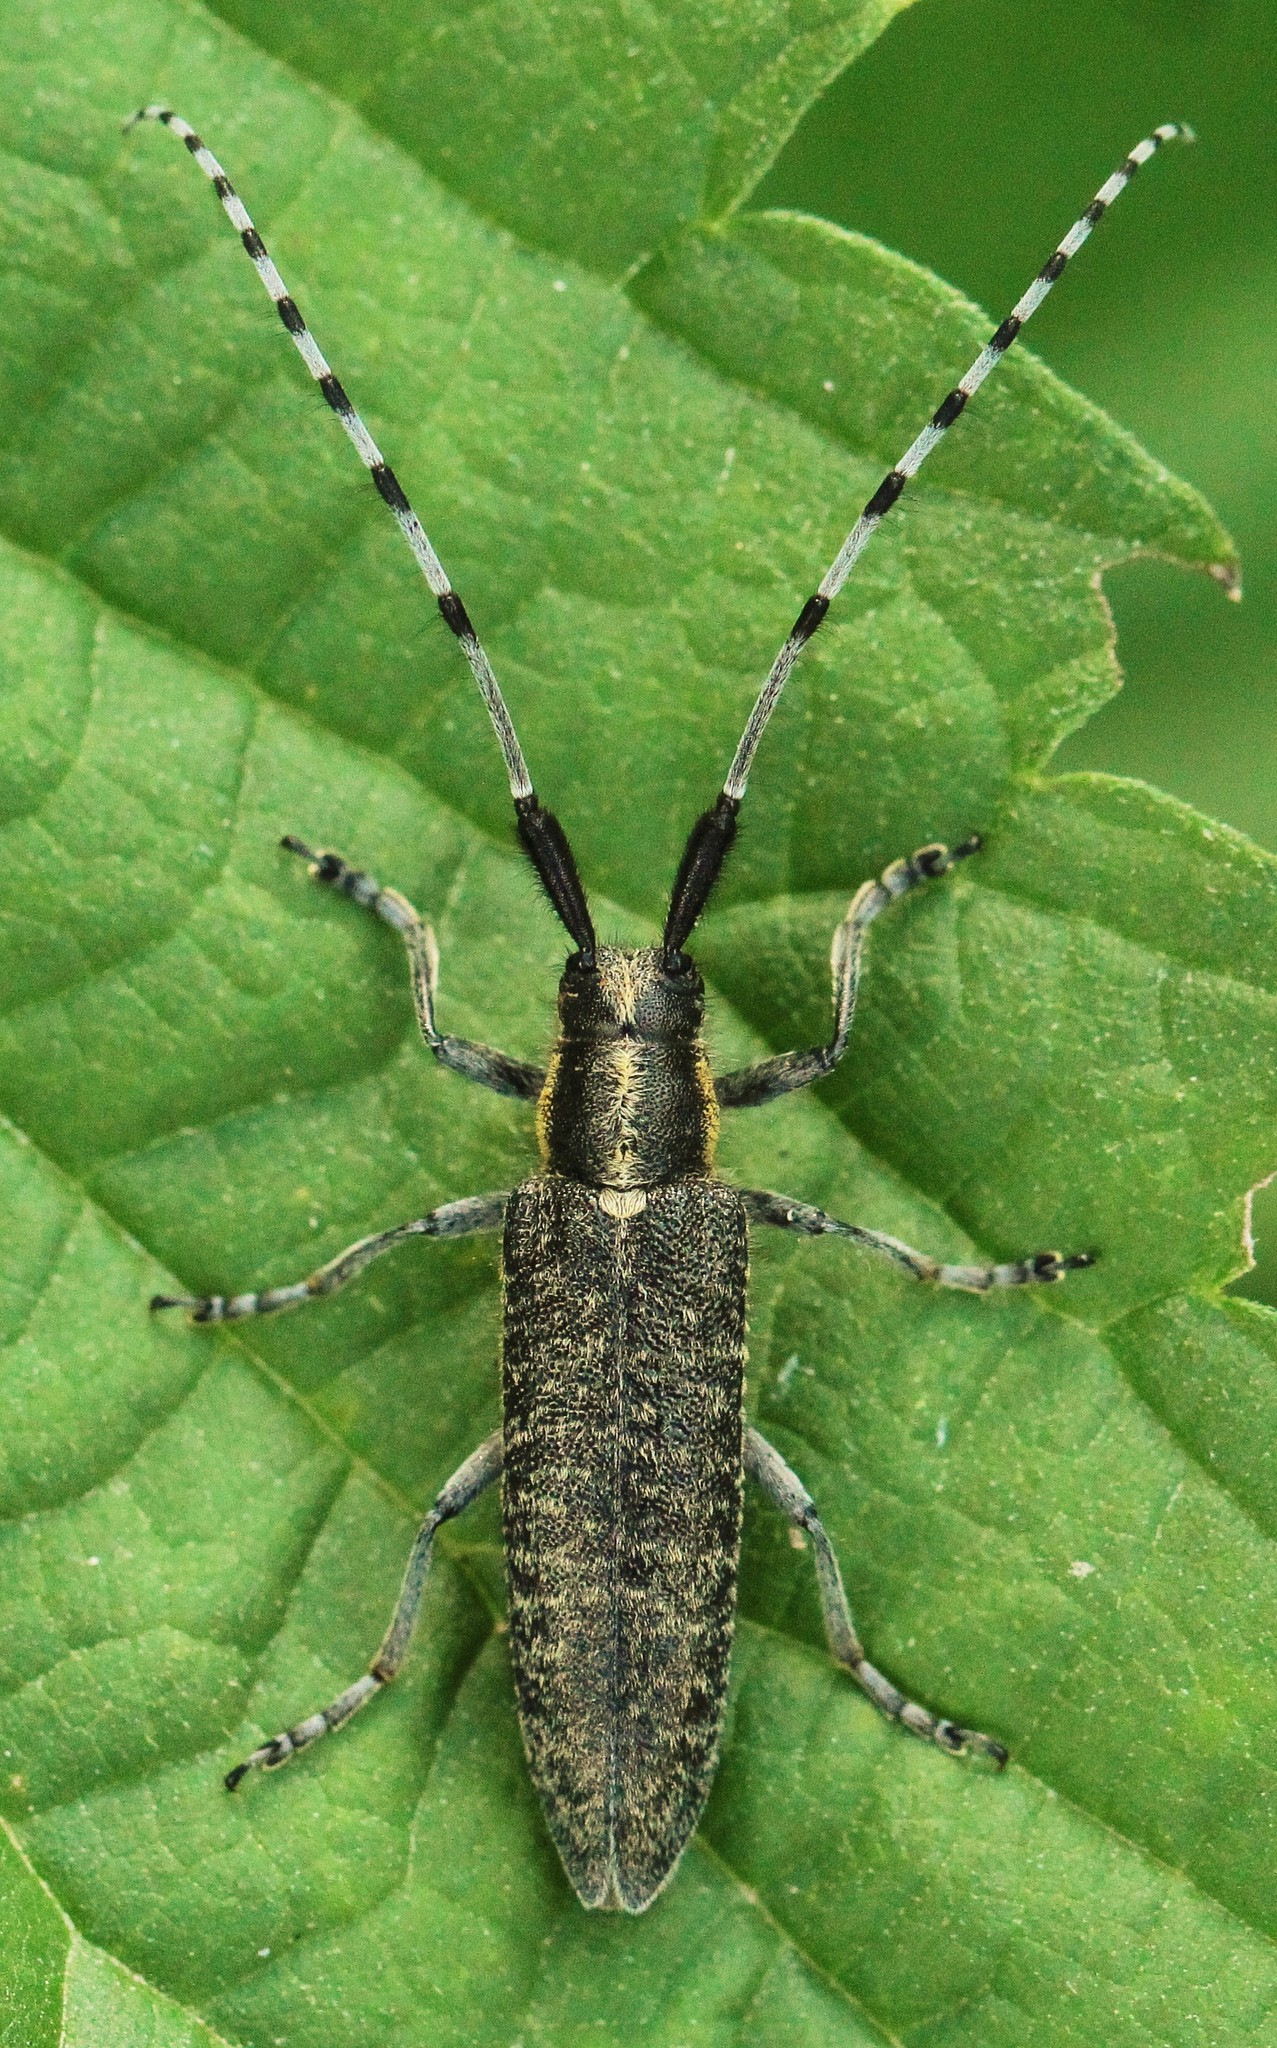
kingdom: Animalia
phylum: Arthropoda
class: Insecta
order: Coleoptera
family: Cerambycidae
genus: Agapanthia
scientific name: Agapanthia villosoviridescens
